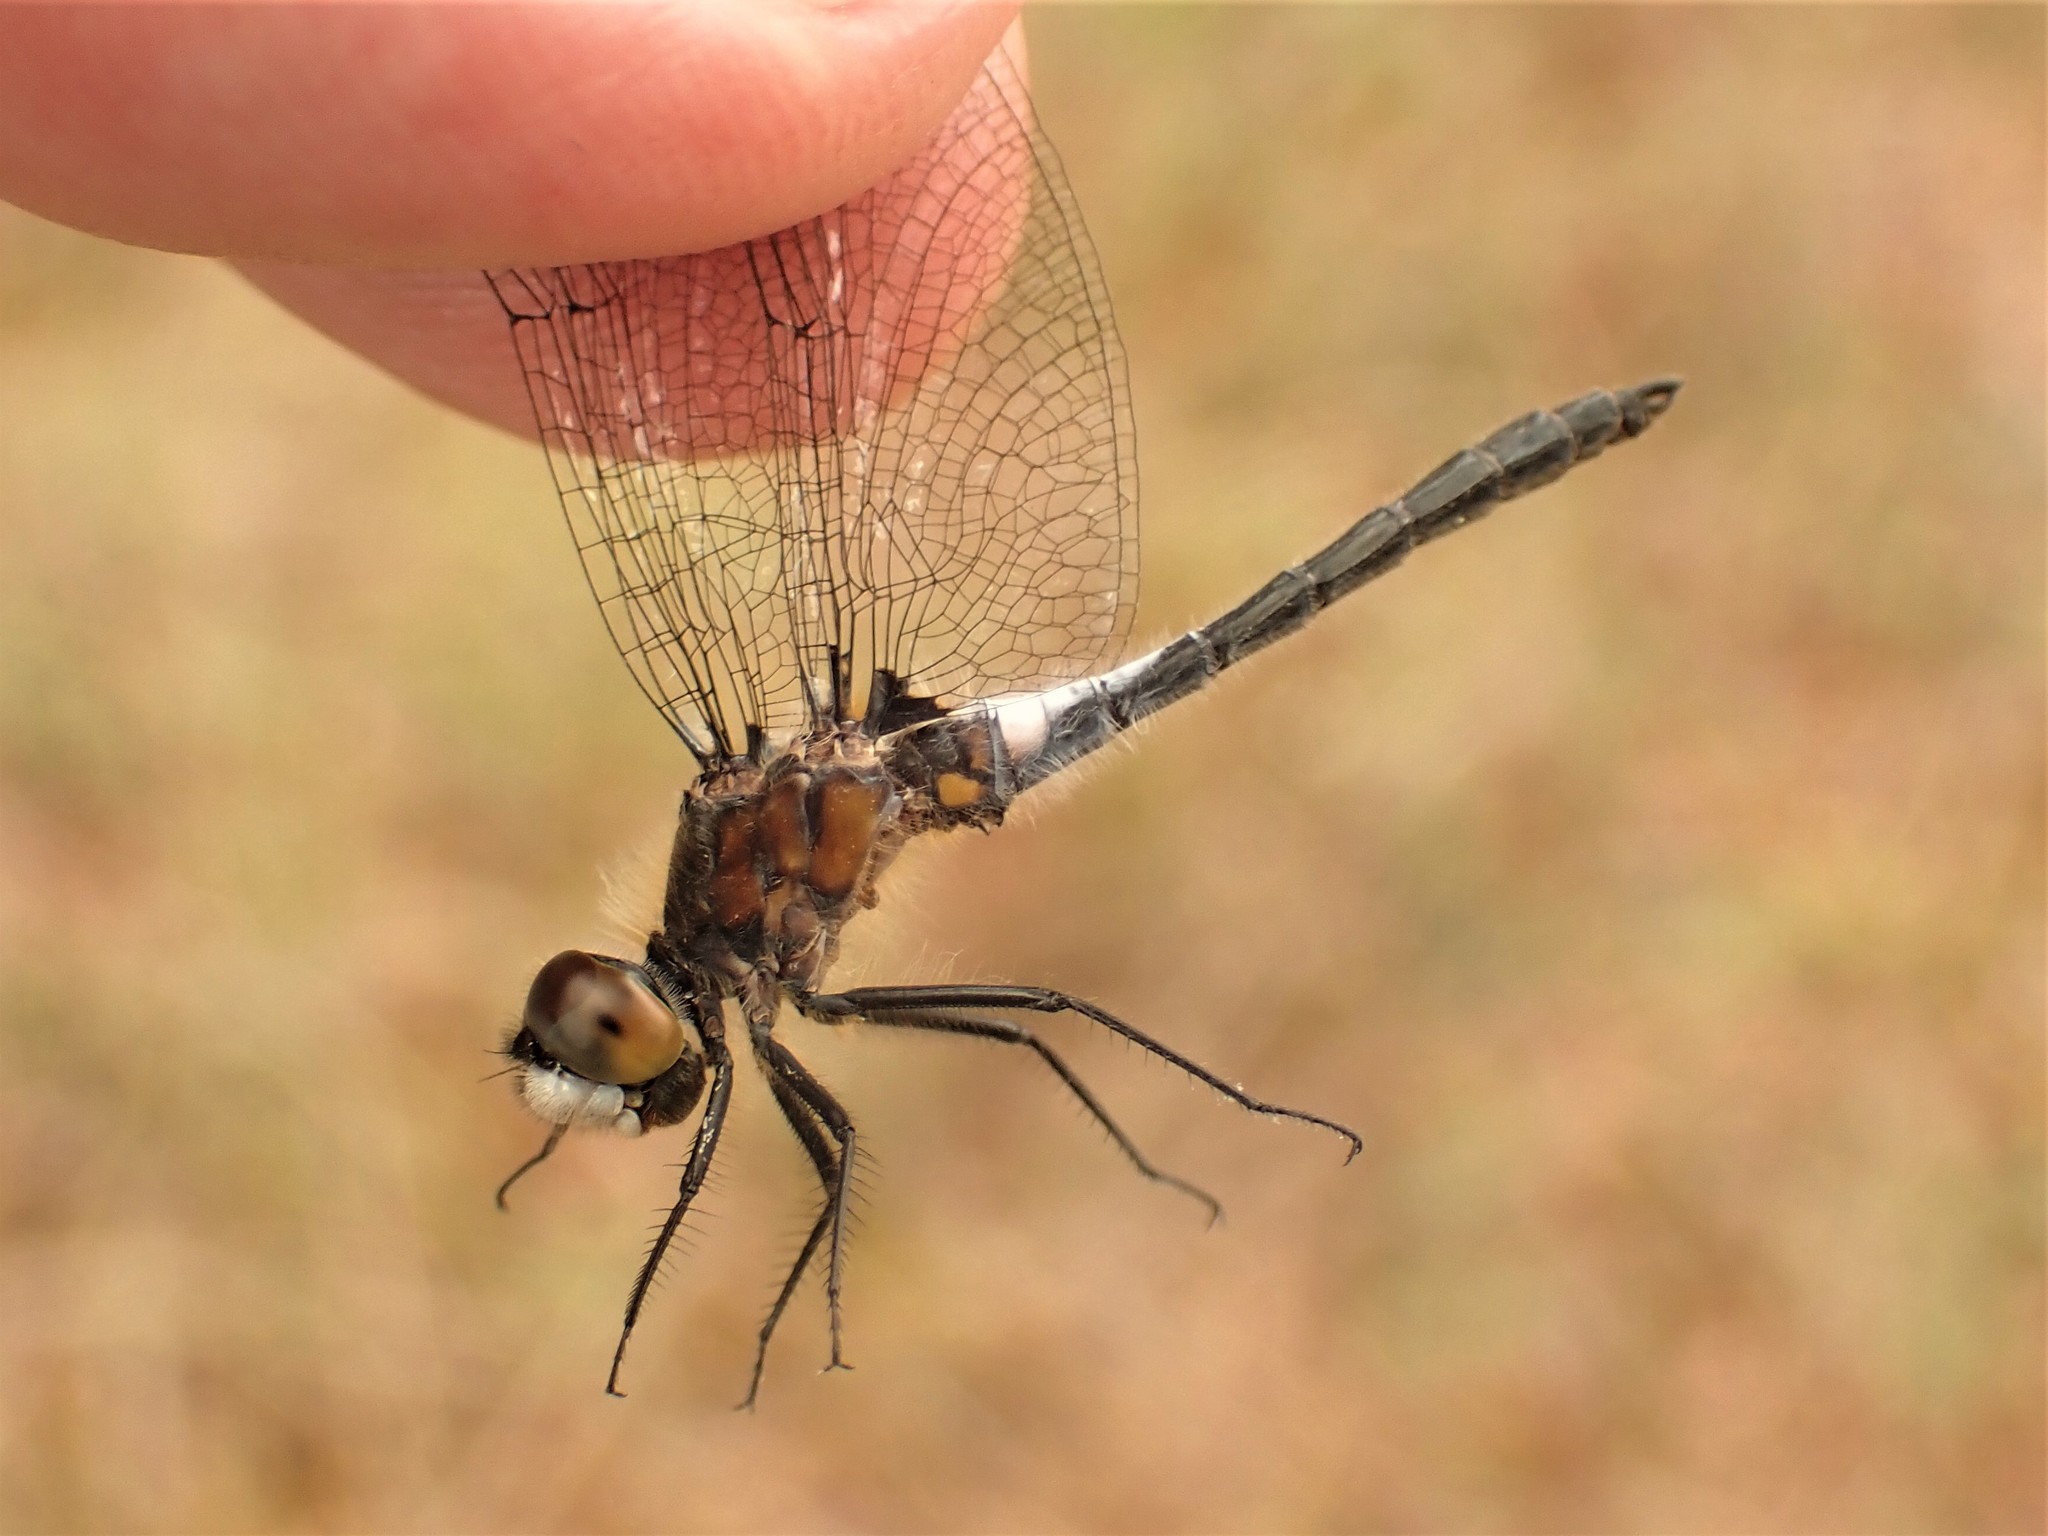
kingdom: Animalia
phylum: Arthropoda
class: Insecta
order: Odonata
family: Libellulidae
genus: Leucorrhinia
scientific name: Leucorrhinia frigida
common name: Frosted whiteface
